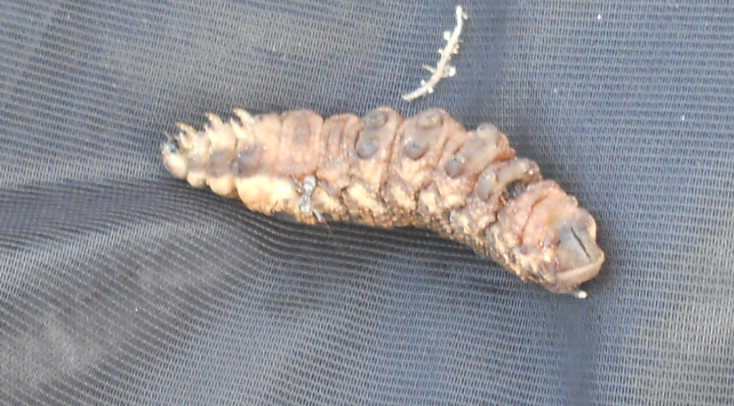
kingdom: Animalia
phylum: Arthropoda
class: Insecta
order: Lepidoptera
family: Sphingidae
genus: Deilephila
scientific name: Deilephila elpenor
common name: Elephant hawk-moth
